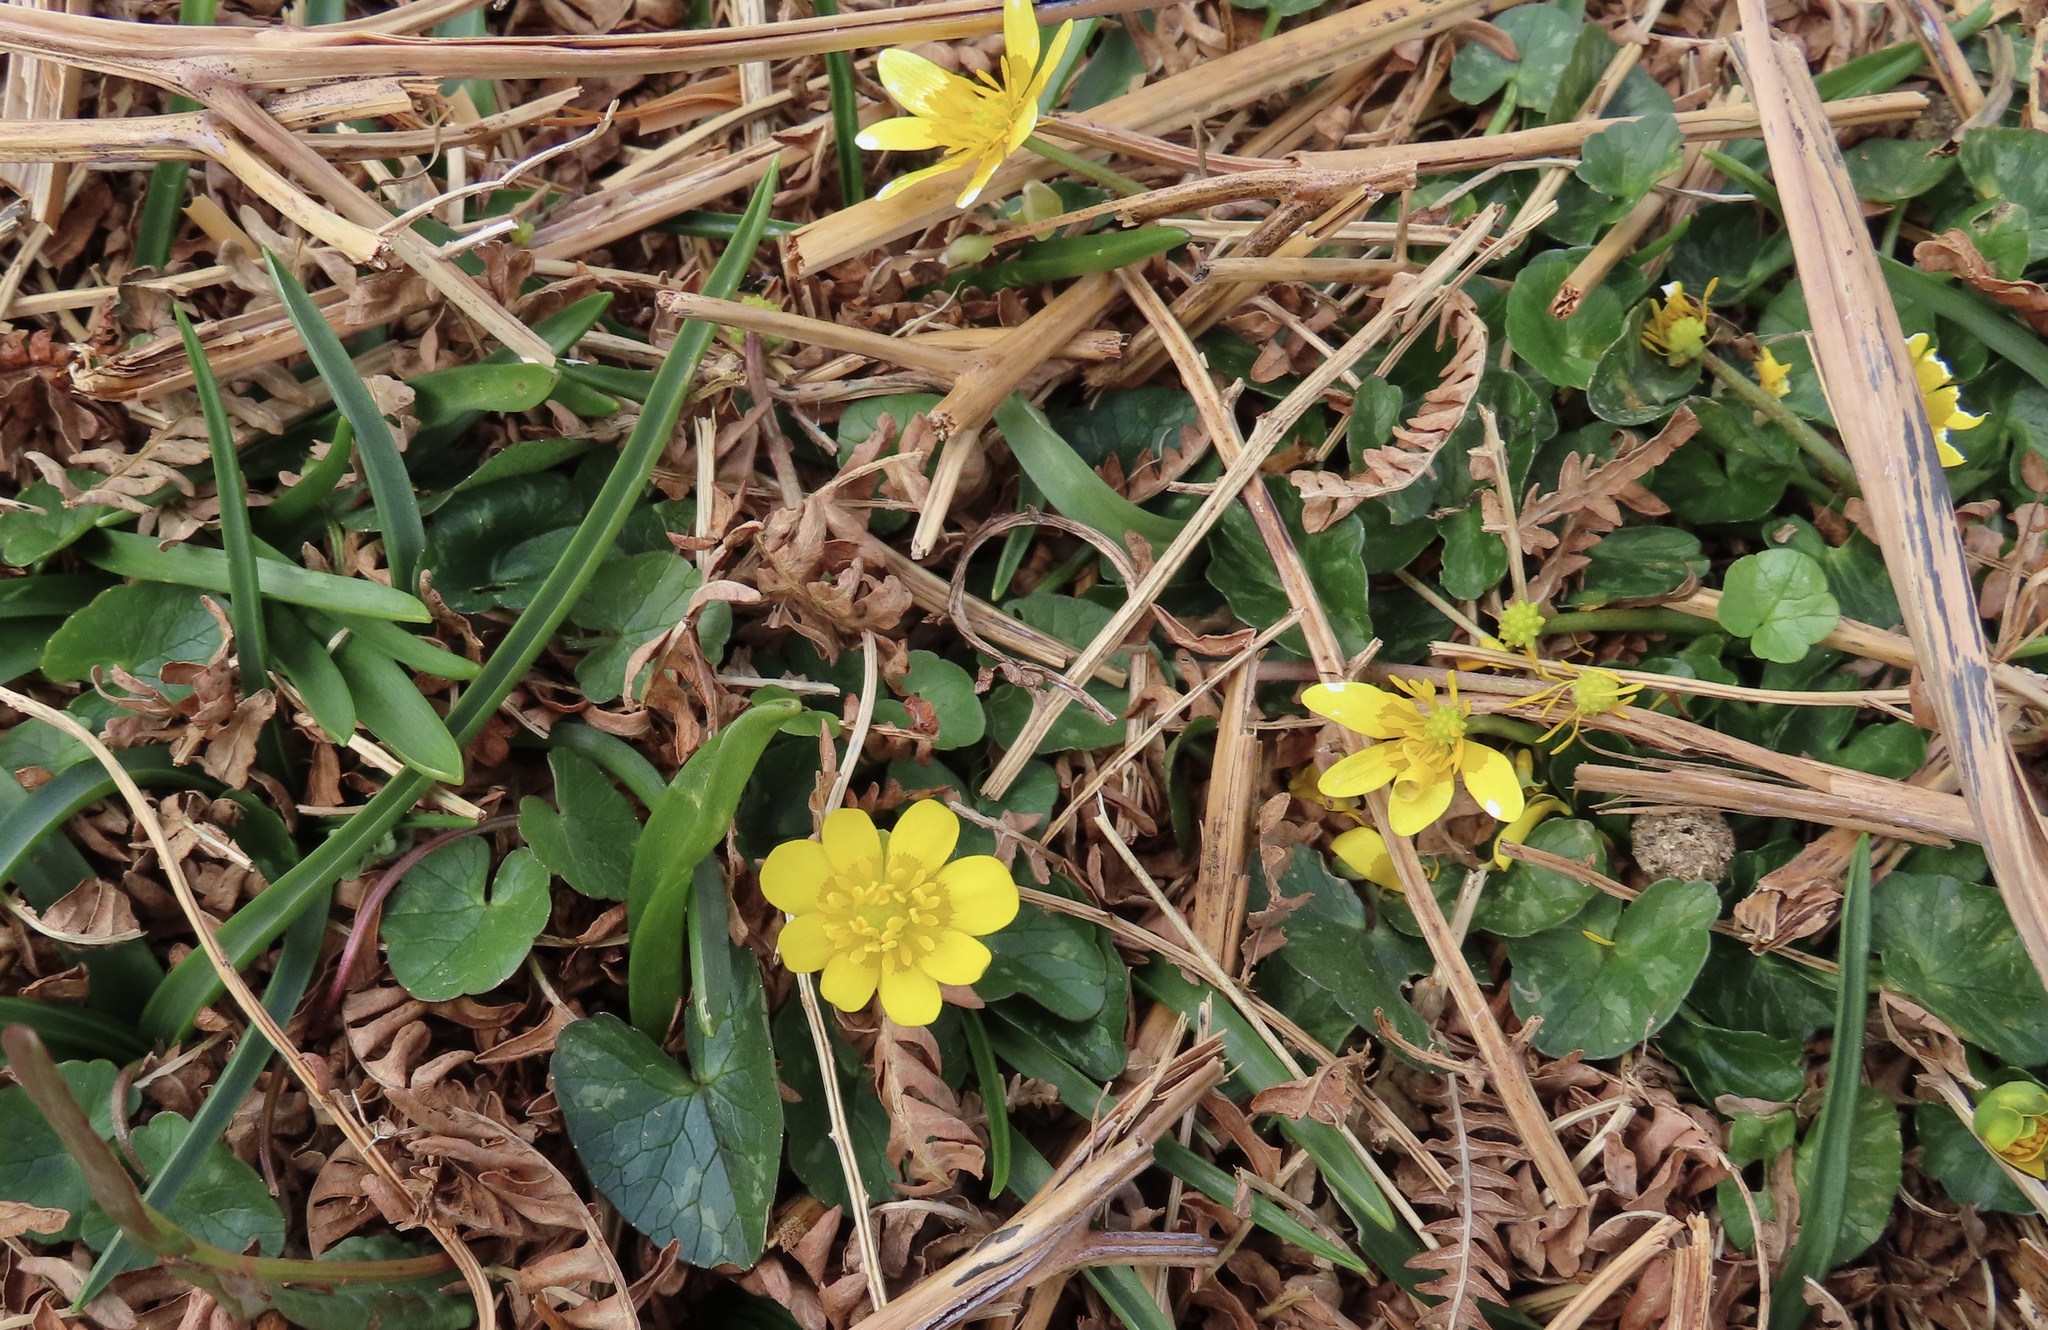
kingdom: Plantae
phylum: Tracheophyta
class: Magnoliopsida
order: Ranunculales
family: Ranunculaceae
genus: Ficaria
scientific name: Ficaria verna
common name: Lesser celandine
